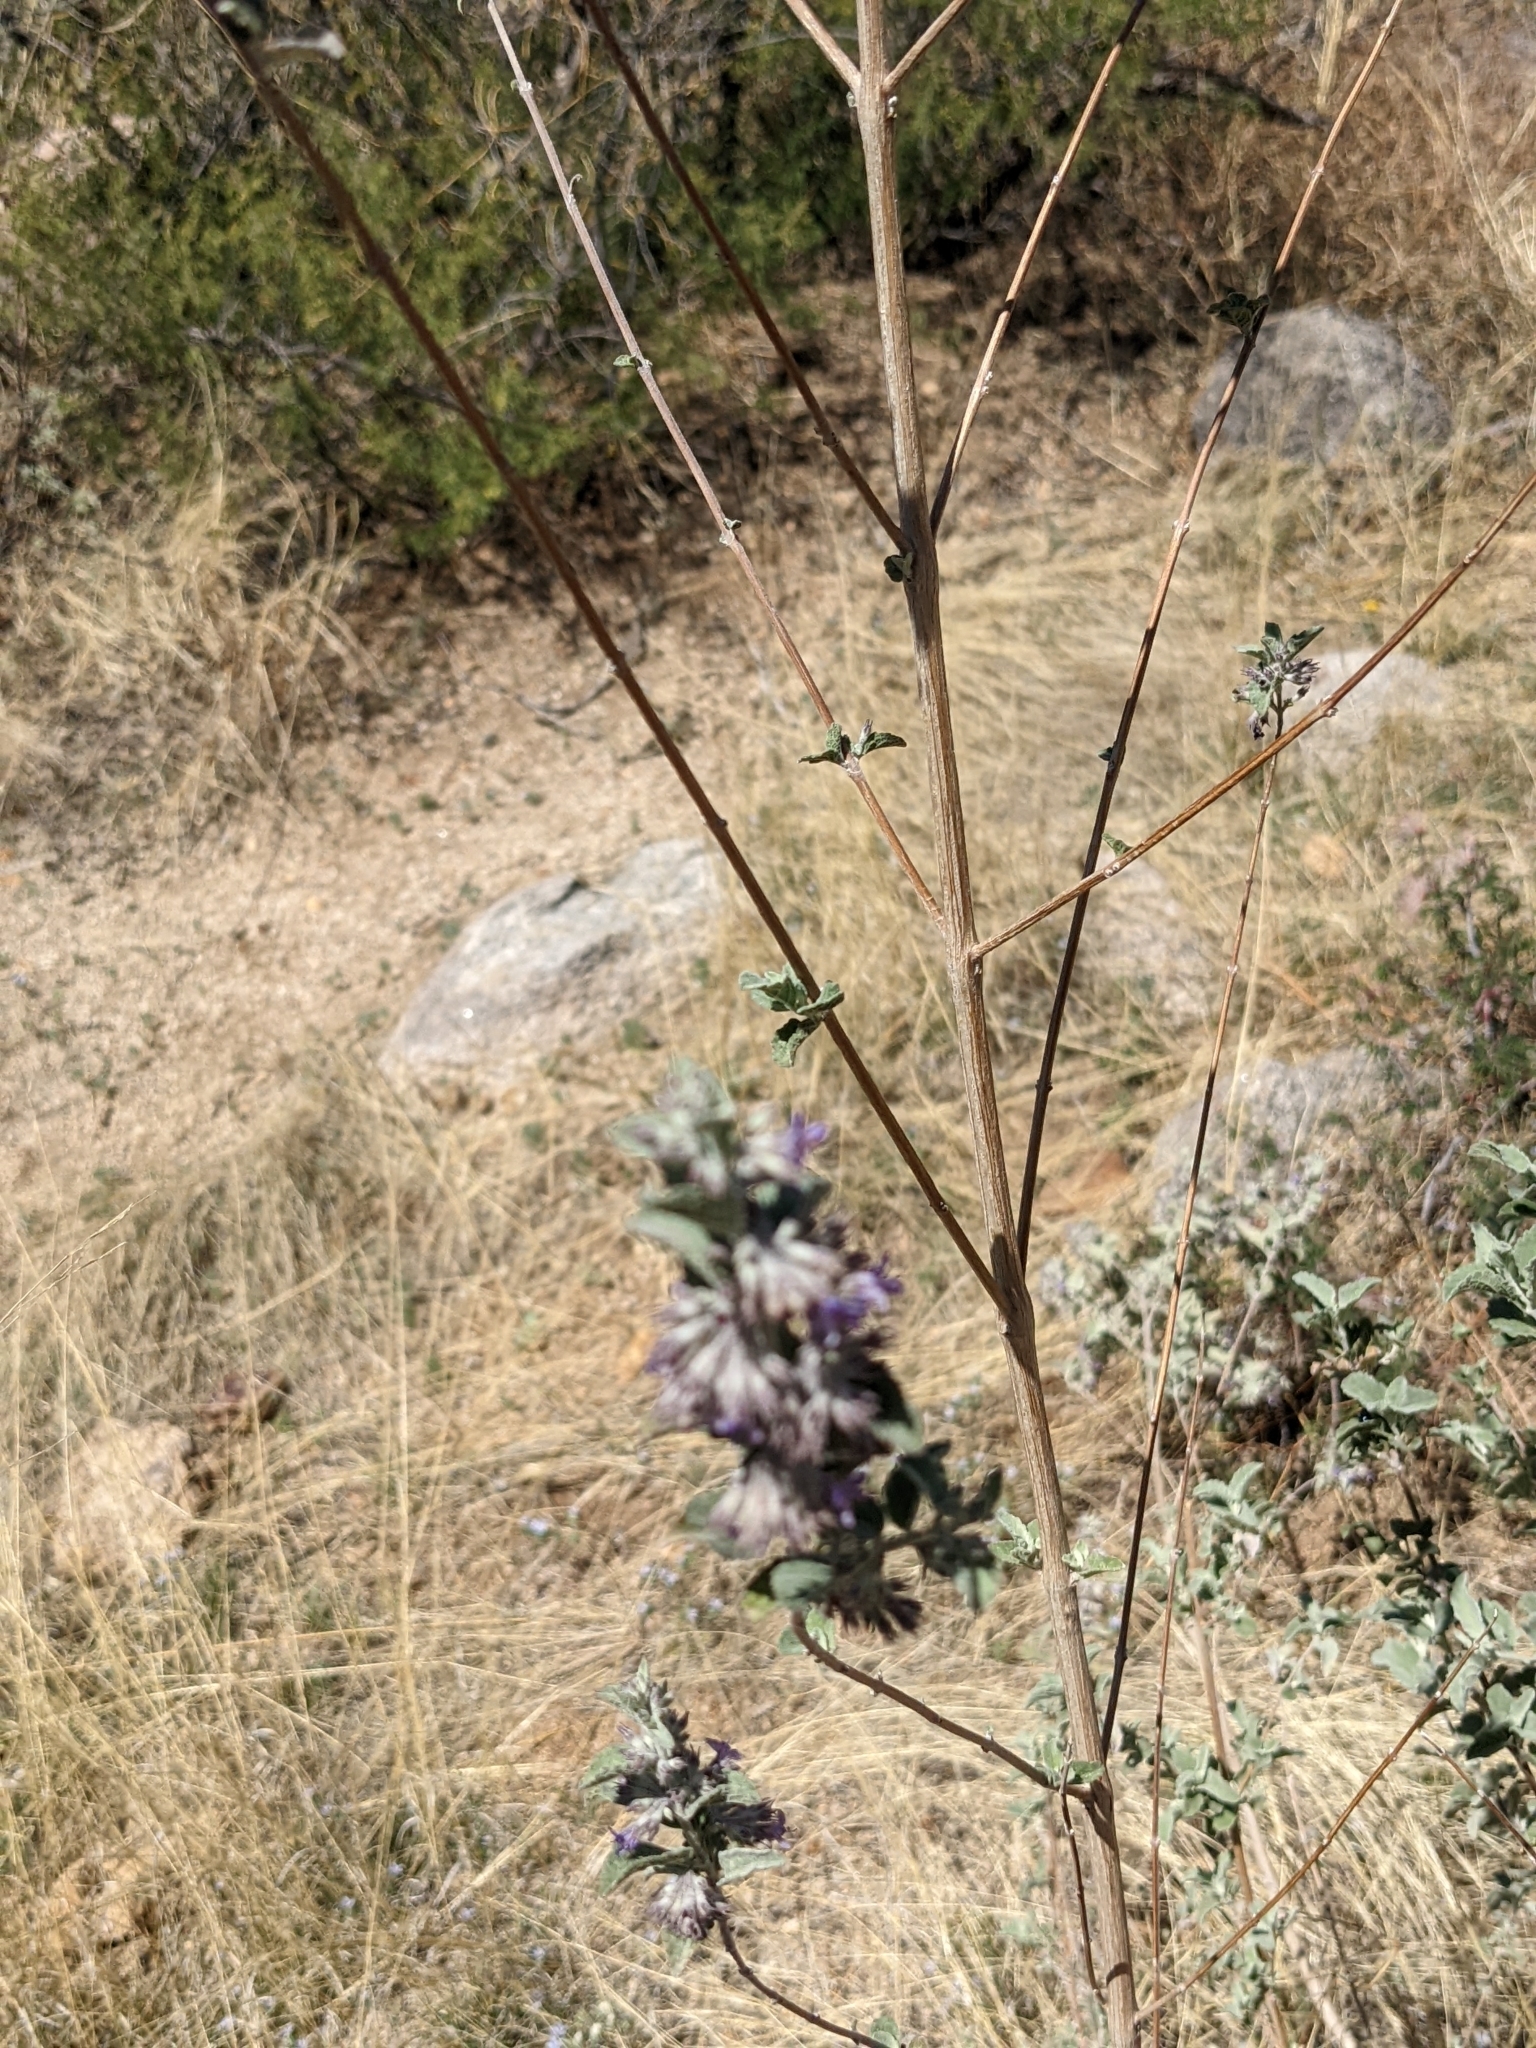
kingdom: Plantae
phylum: Tracheophyta
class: Magnoliopsida
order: Lamiales
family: Lamiaceae
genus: Condea
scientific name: Condea emoryi
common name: Chia
